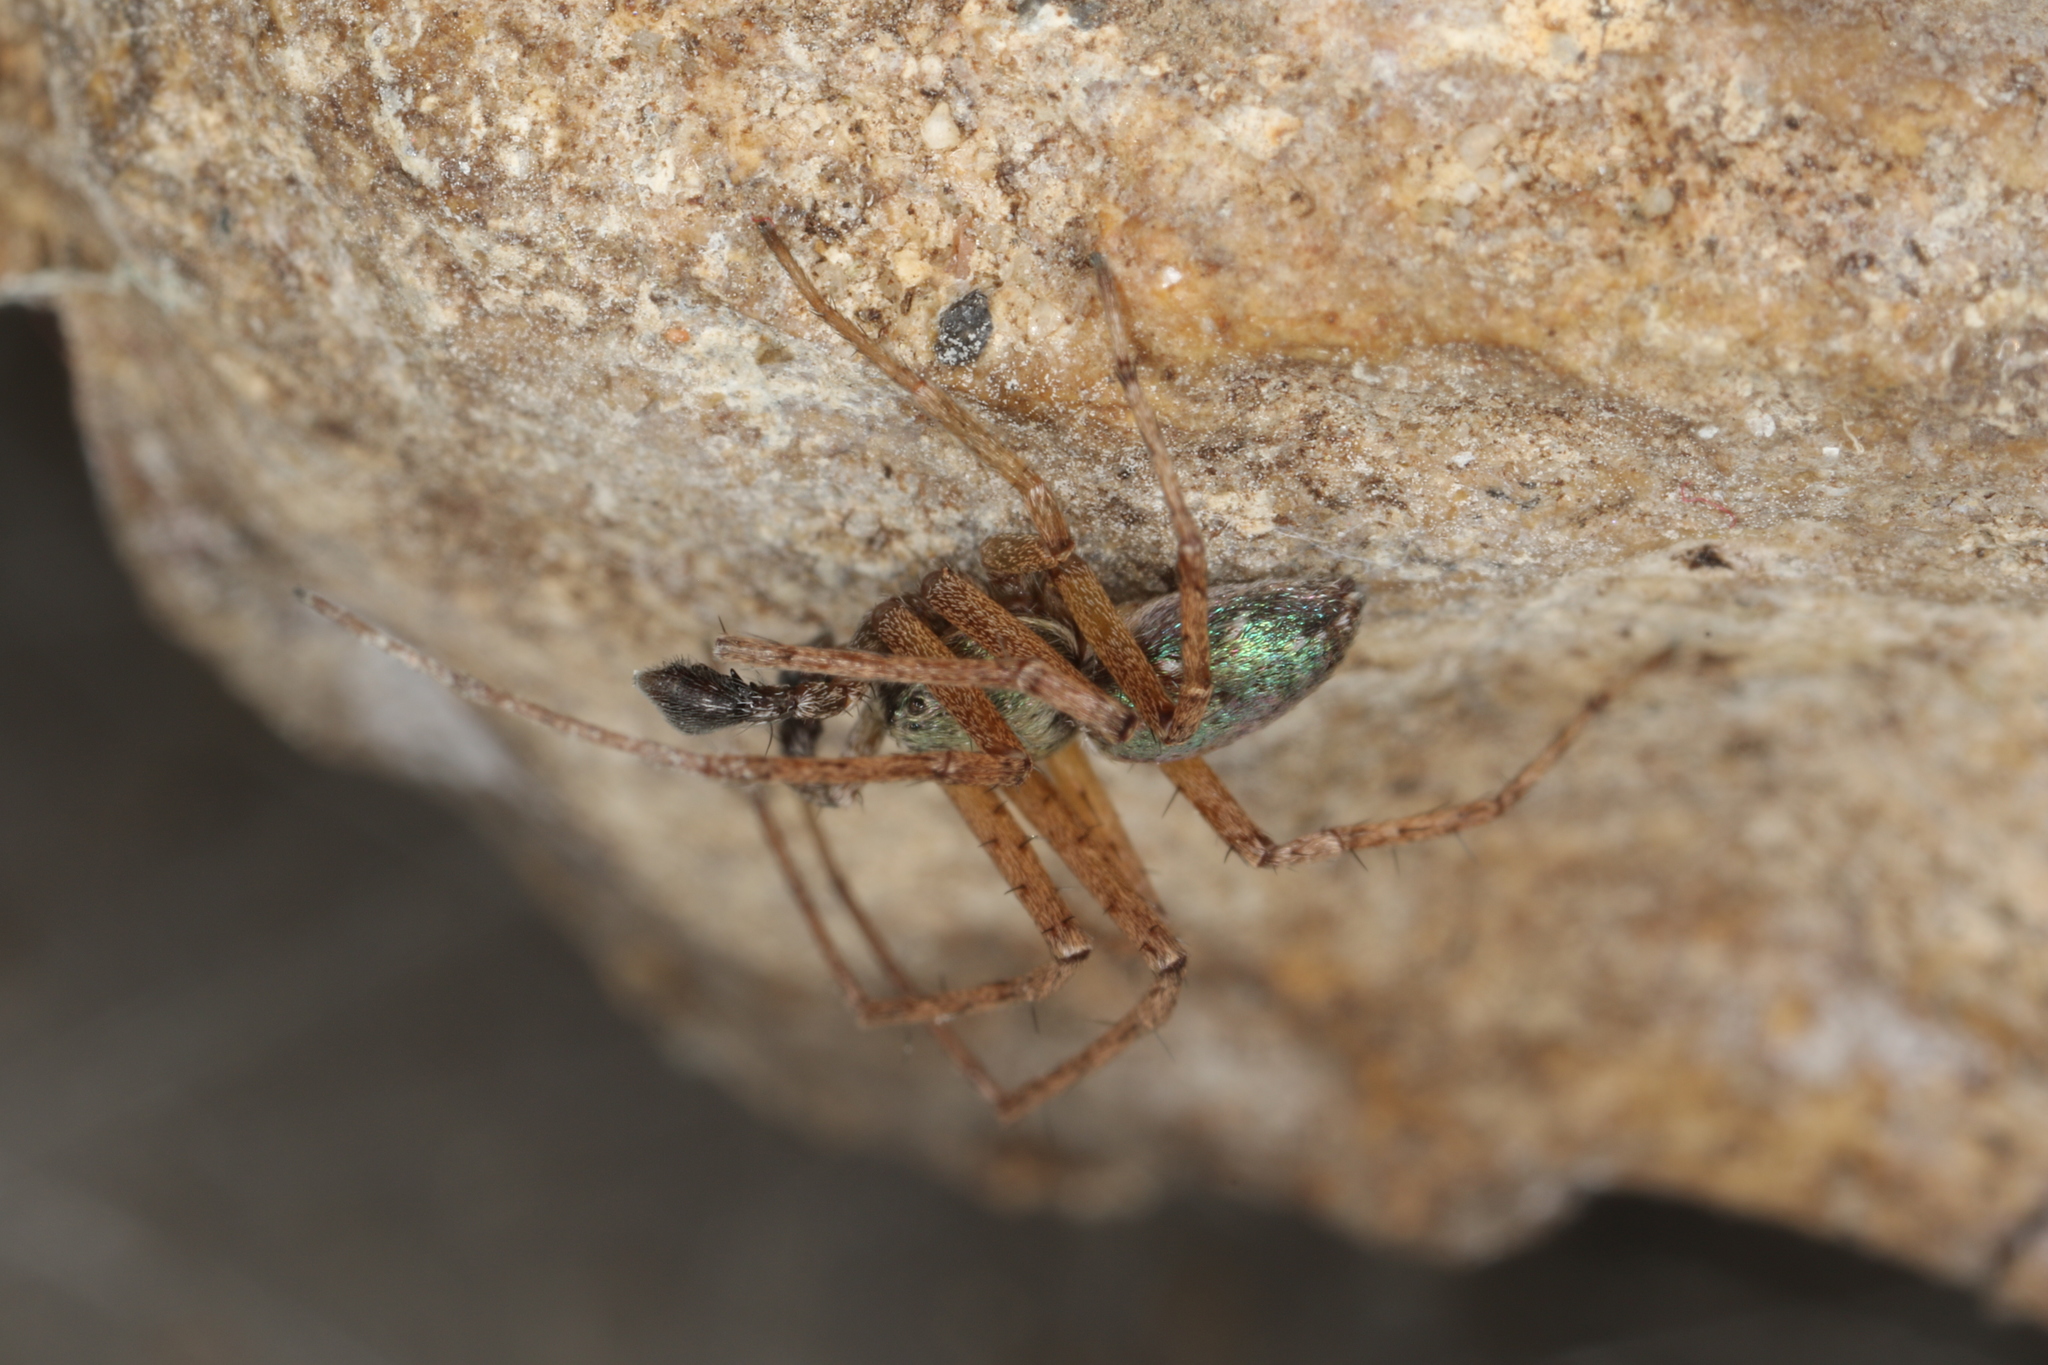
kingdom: Animalia
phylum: Arthropoda
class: Arachnida
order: Araneae
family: Philodromidae
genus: Philodromus
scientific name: Philodromus aureolus
